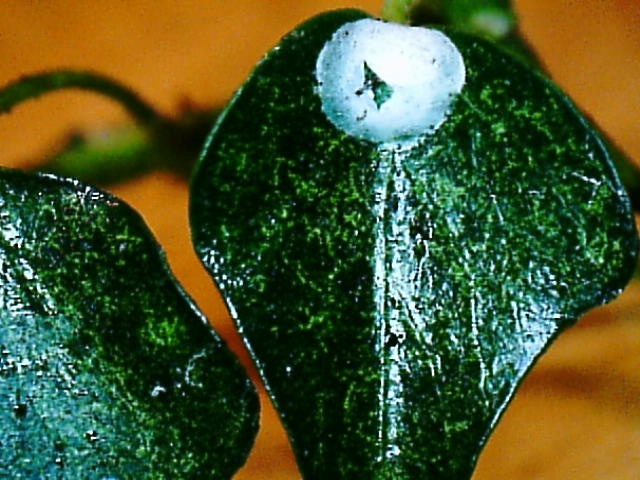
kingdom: Animalia
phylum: Arthropoda
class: Insecta
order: Neuroptera
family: Coniopterygidae
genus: Conwentzia
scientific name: Conwentzia psociformis
